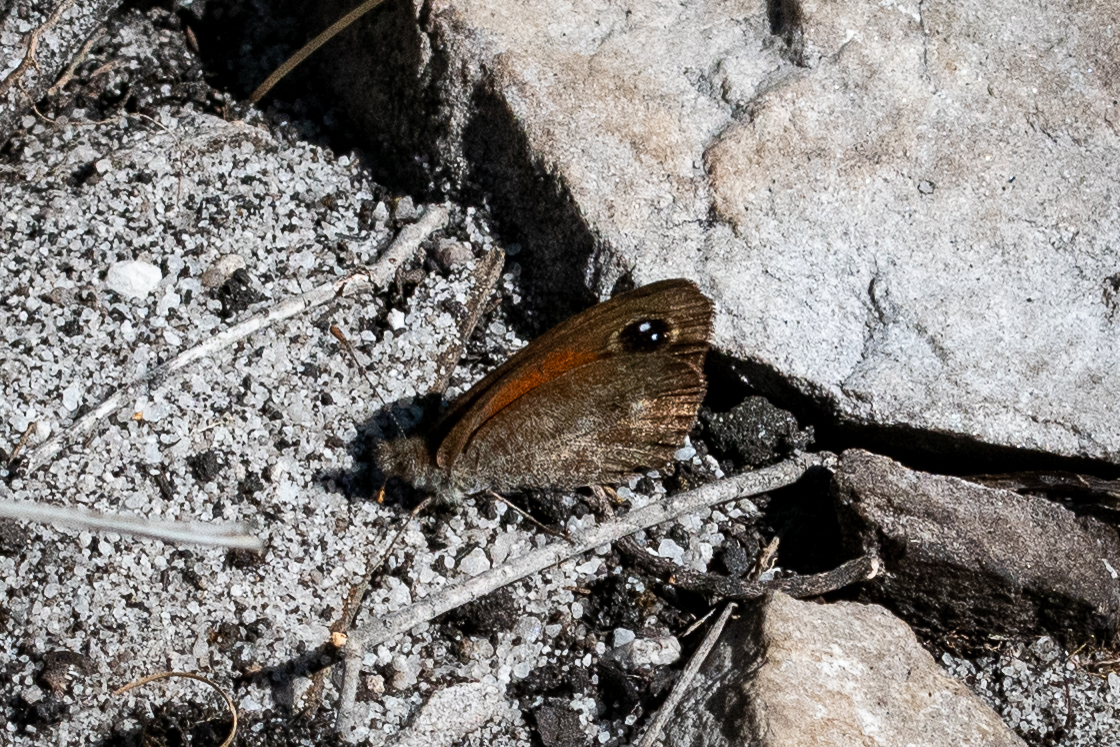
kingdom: Animalia
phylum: Arthropoda
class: Insecta
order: Lepidoptera
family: Nymphalidae
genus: Stygionympha
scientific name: Stygionympha vigilans
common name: Western hillside brown
